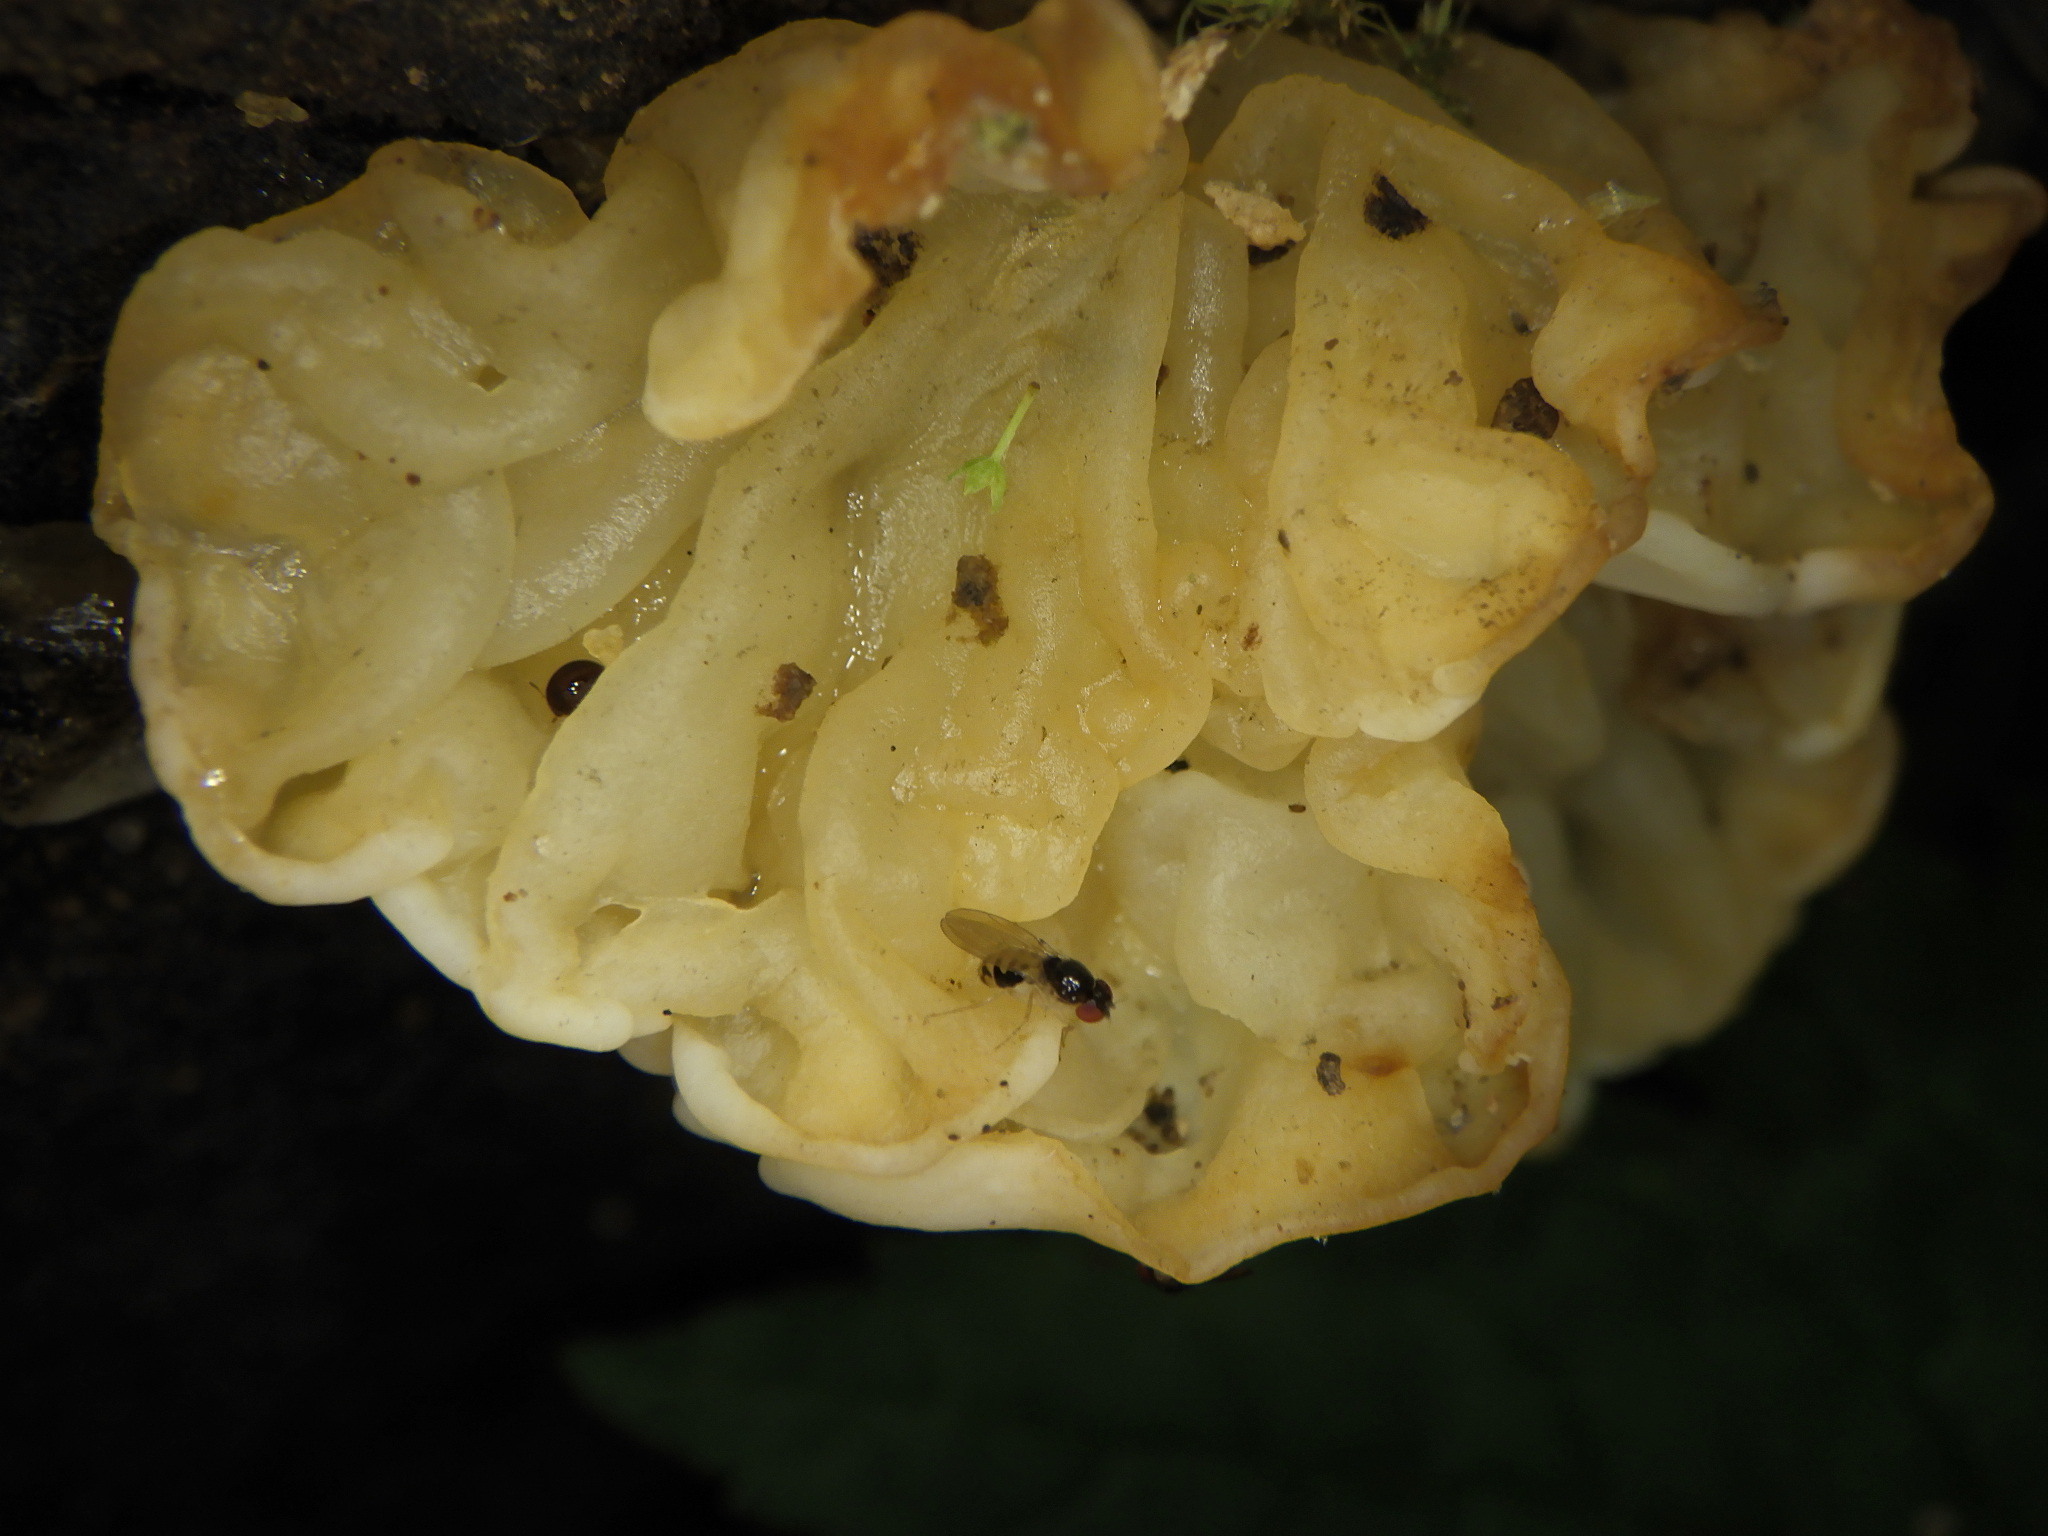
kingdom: Fungi
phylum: Basidiomycota
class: Agaricomycetes
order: Auriculariales
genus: Ductifera
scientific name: Ductifera pululahuana
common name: White jelly fungus
